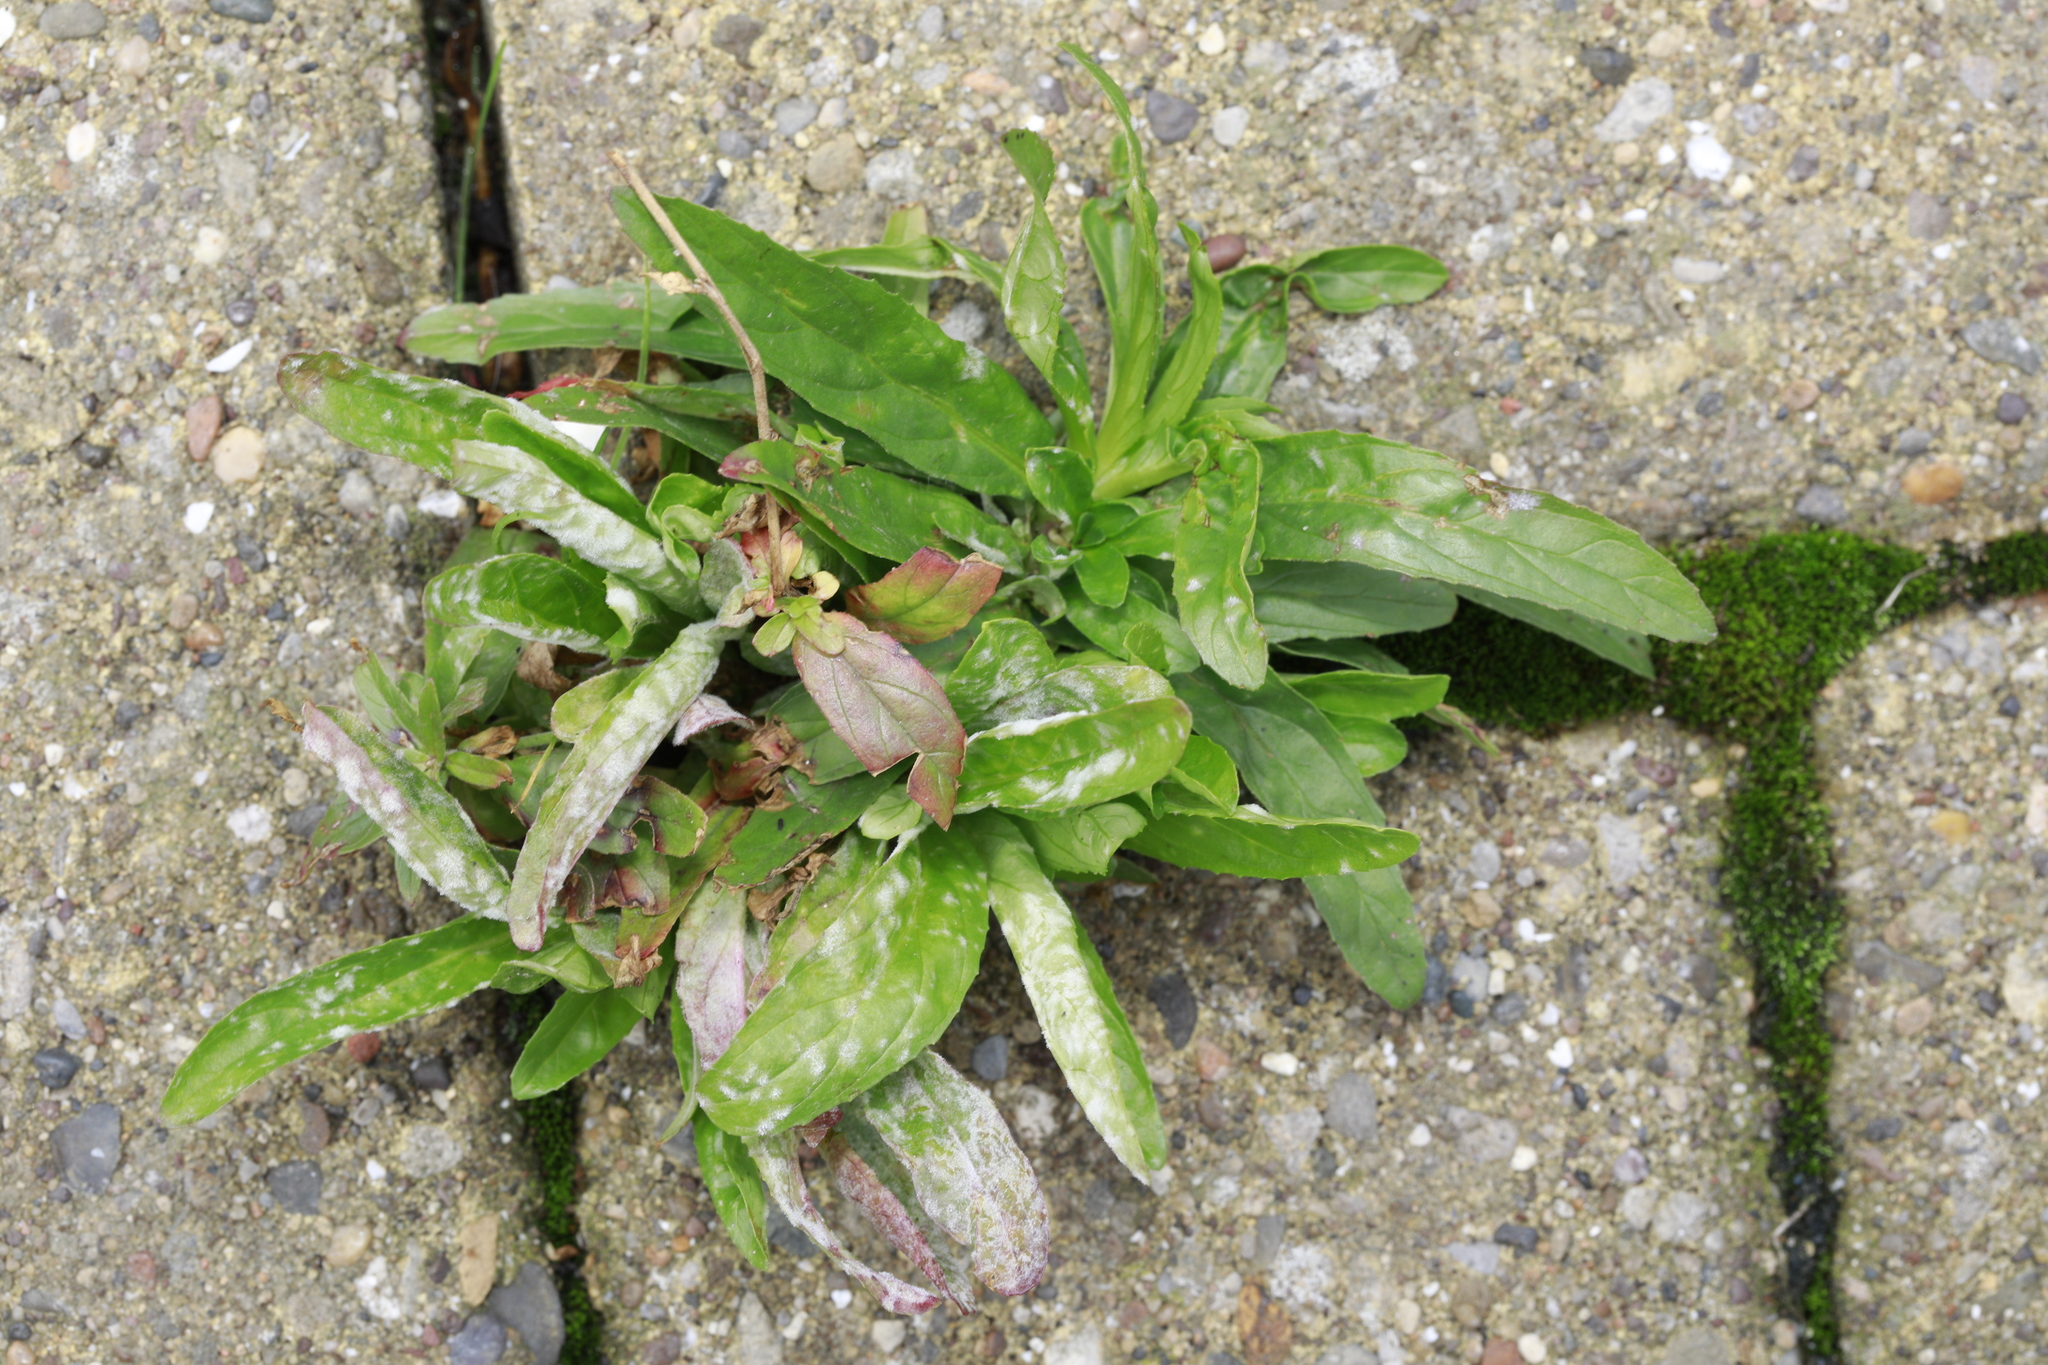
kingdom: Fungi
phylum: Ascomycota
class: Leotiomycetes
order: Helotiales
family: Erysiphaceae
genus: Podosphaera
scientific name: Podosphaera epilobii
